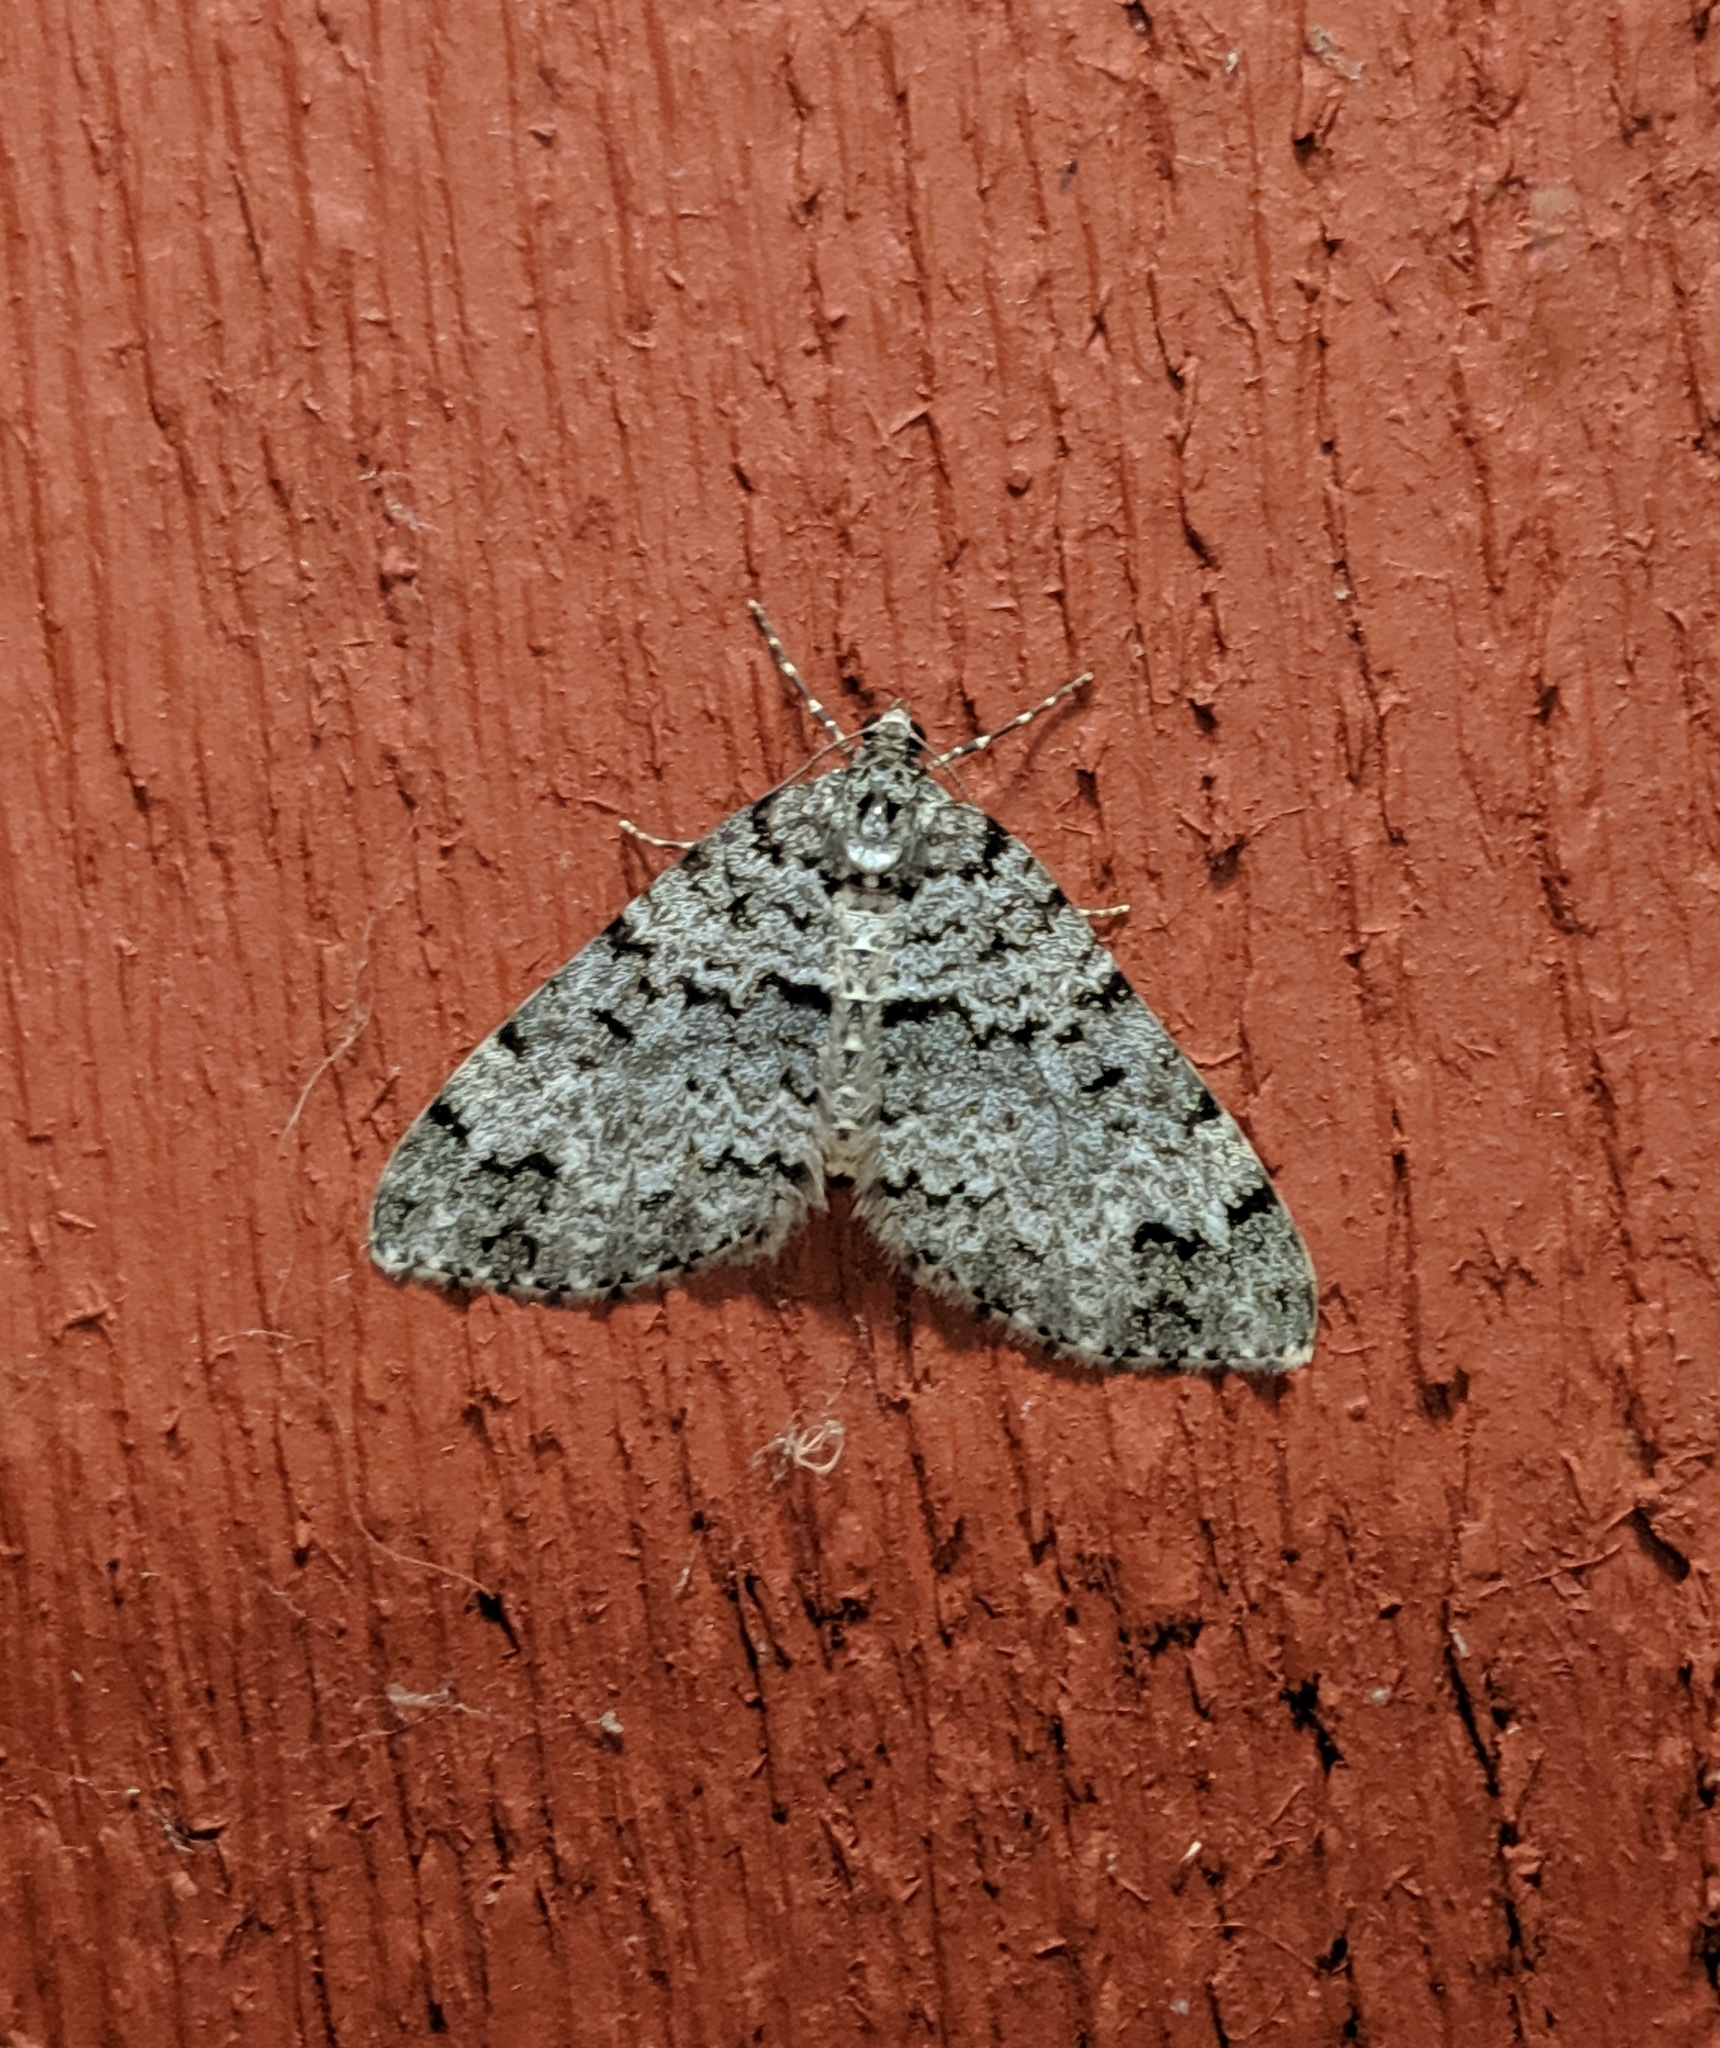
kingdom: Animalia
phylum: Arthropoda
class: Insecta
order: Lepidoptera
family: Geometridae
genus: Spargania
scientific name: Spargania magnoliata
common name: Double-banded carpet
